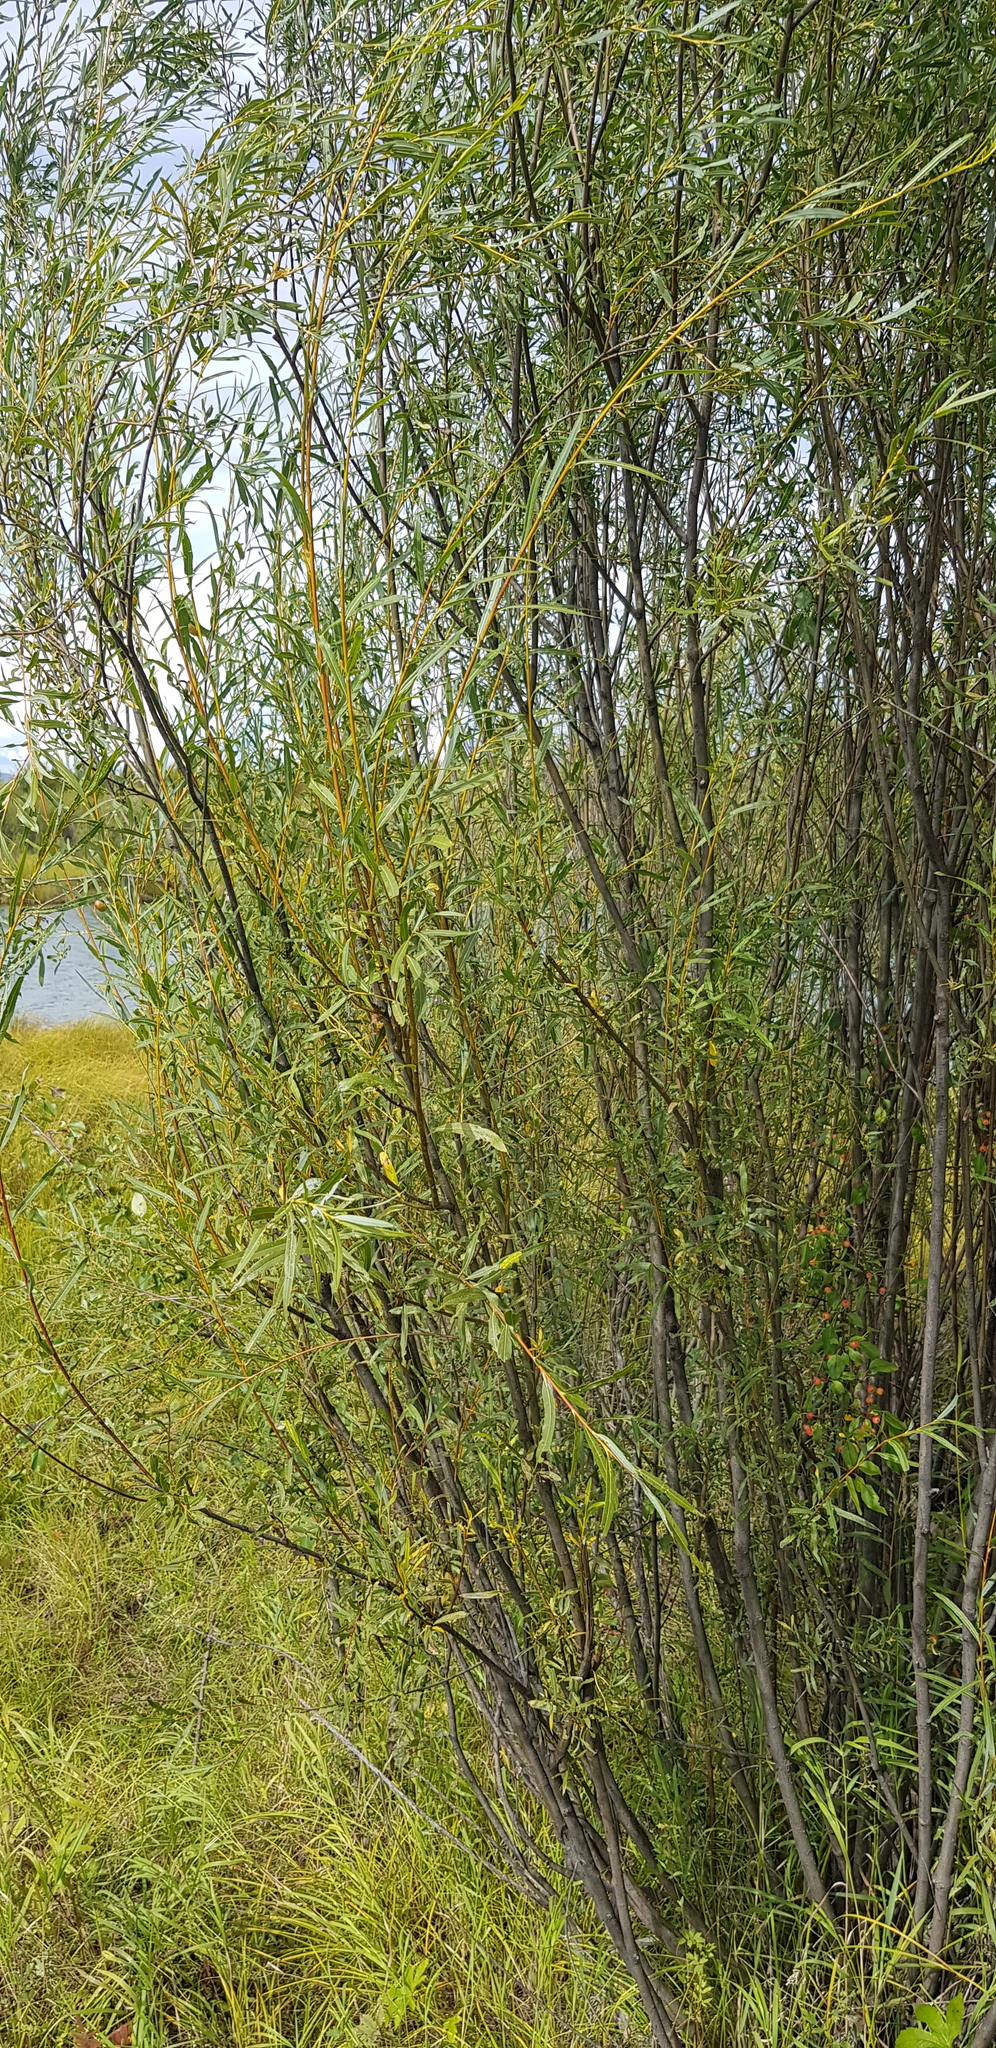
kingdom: Plantae
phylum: Tracheophyta
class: Magnoliopsida
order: Malpighiales
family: Salicaceae
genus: Salix
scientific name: Salix viminalis
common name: Osier
